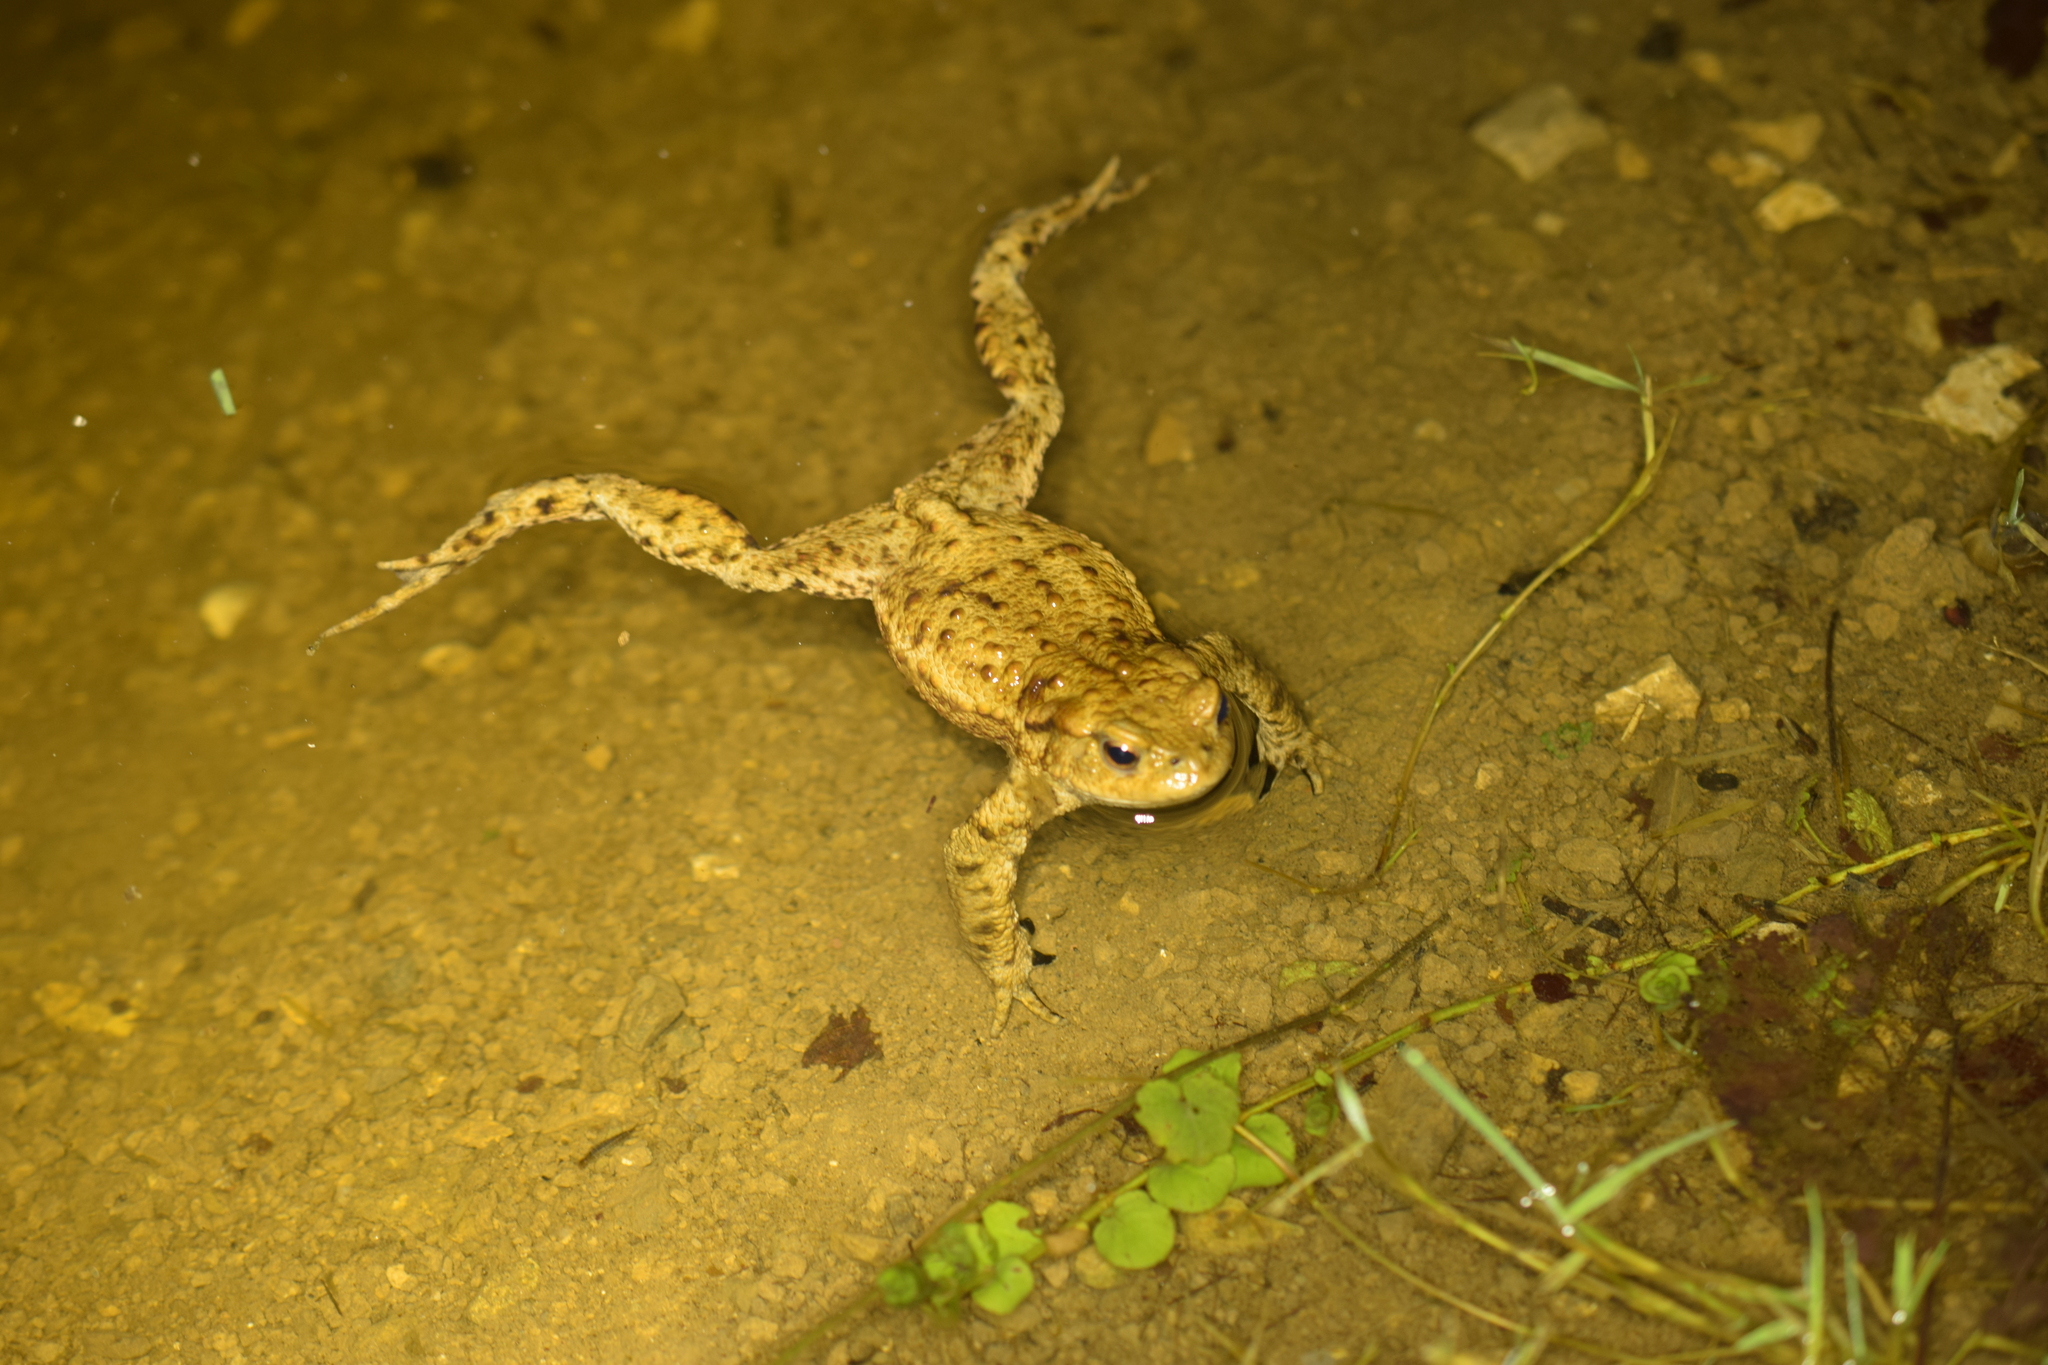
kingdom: Animalia
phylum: Chordata
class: Amphibia
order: Anura
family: Bufonidae
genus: Bufo
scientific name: Bufo bufo
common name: Common toad
